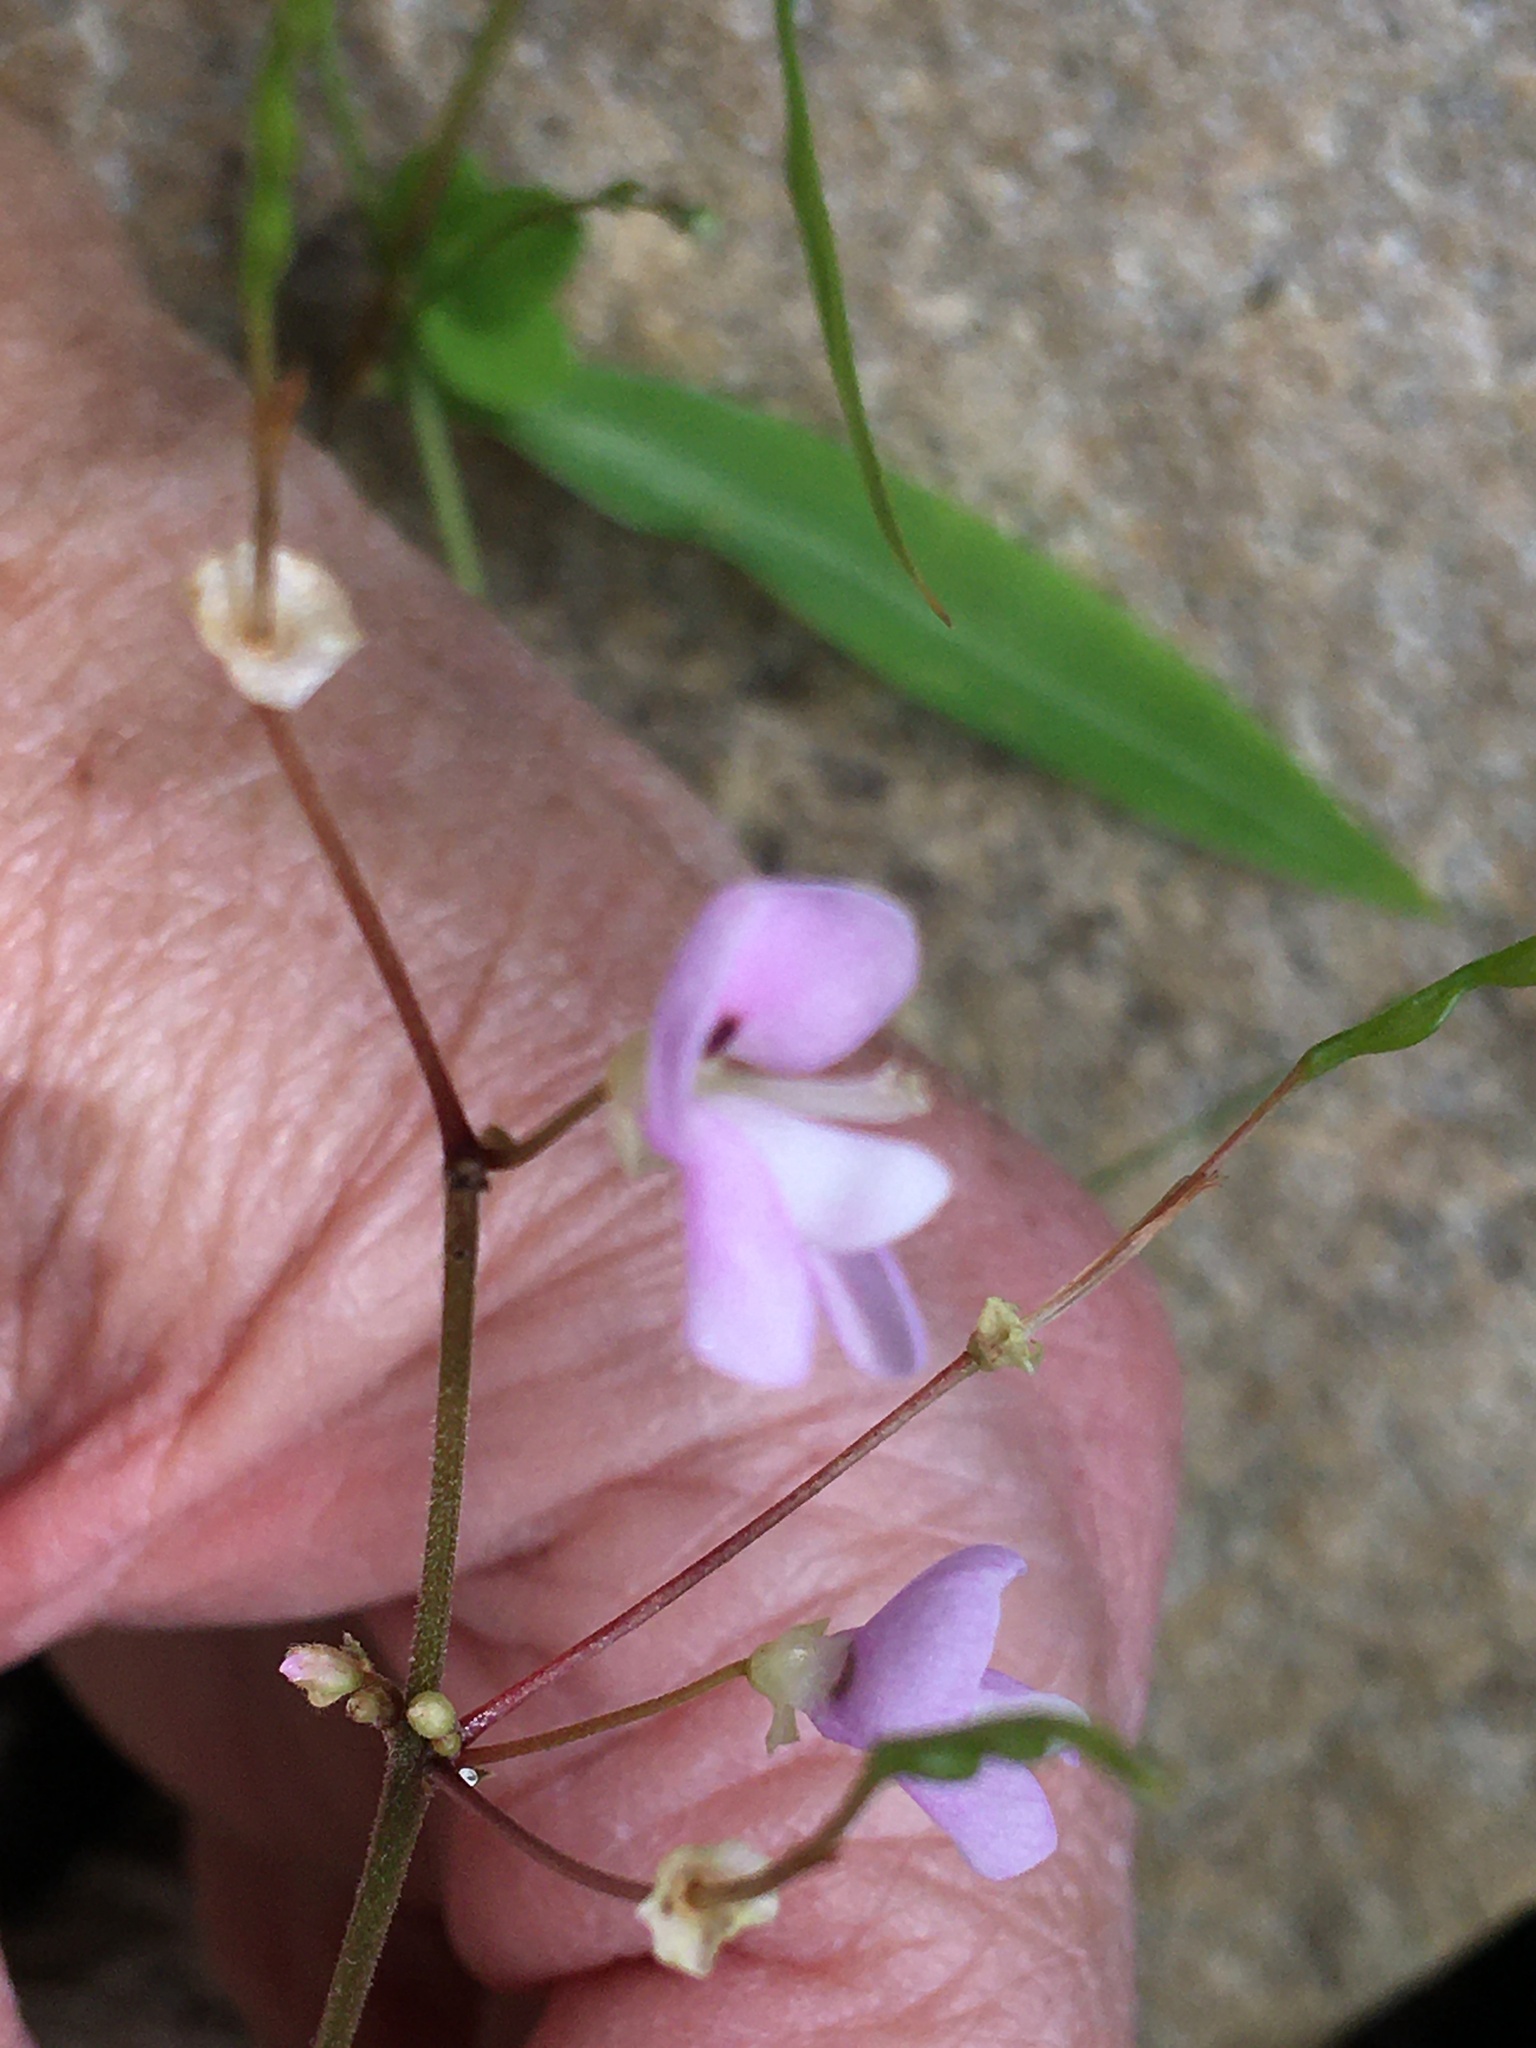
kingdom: Plantae
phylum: Tracheophyta
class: Magnoliopsida
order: Fabales
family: Fabaceae
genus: Hylodesmum
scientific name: Hylodesmum nudiflorum
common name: Bare-stemmed tick-trefoil
